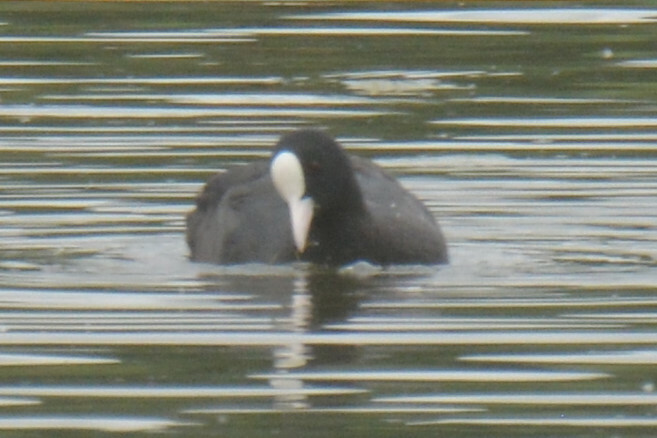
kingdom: Animalia
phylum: Chordata
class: Aves
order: Gruiformes
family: Rallidae
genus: Fulica
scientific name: Fulica atra
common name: Eurasian coot
